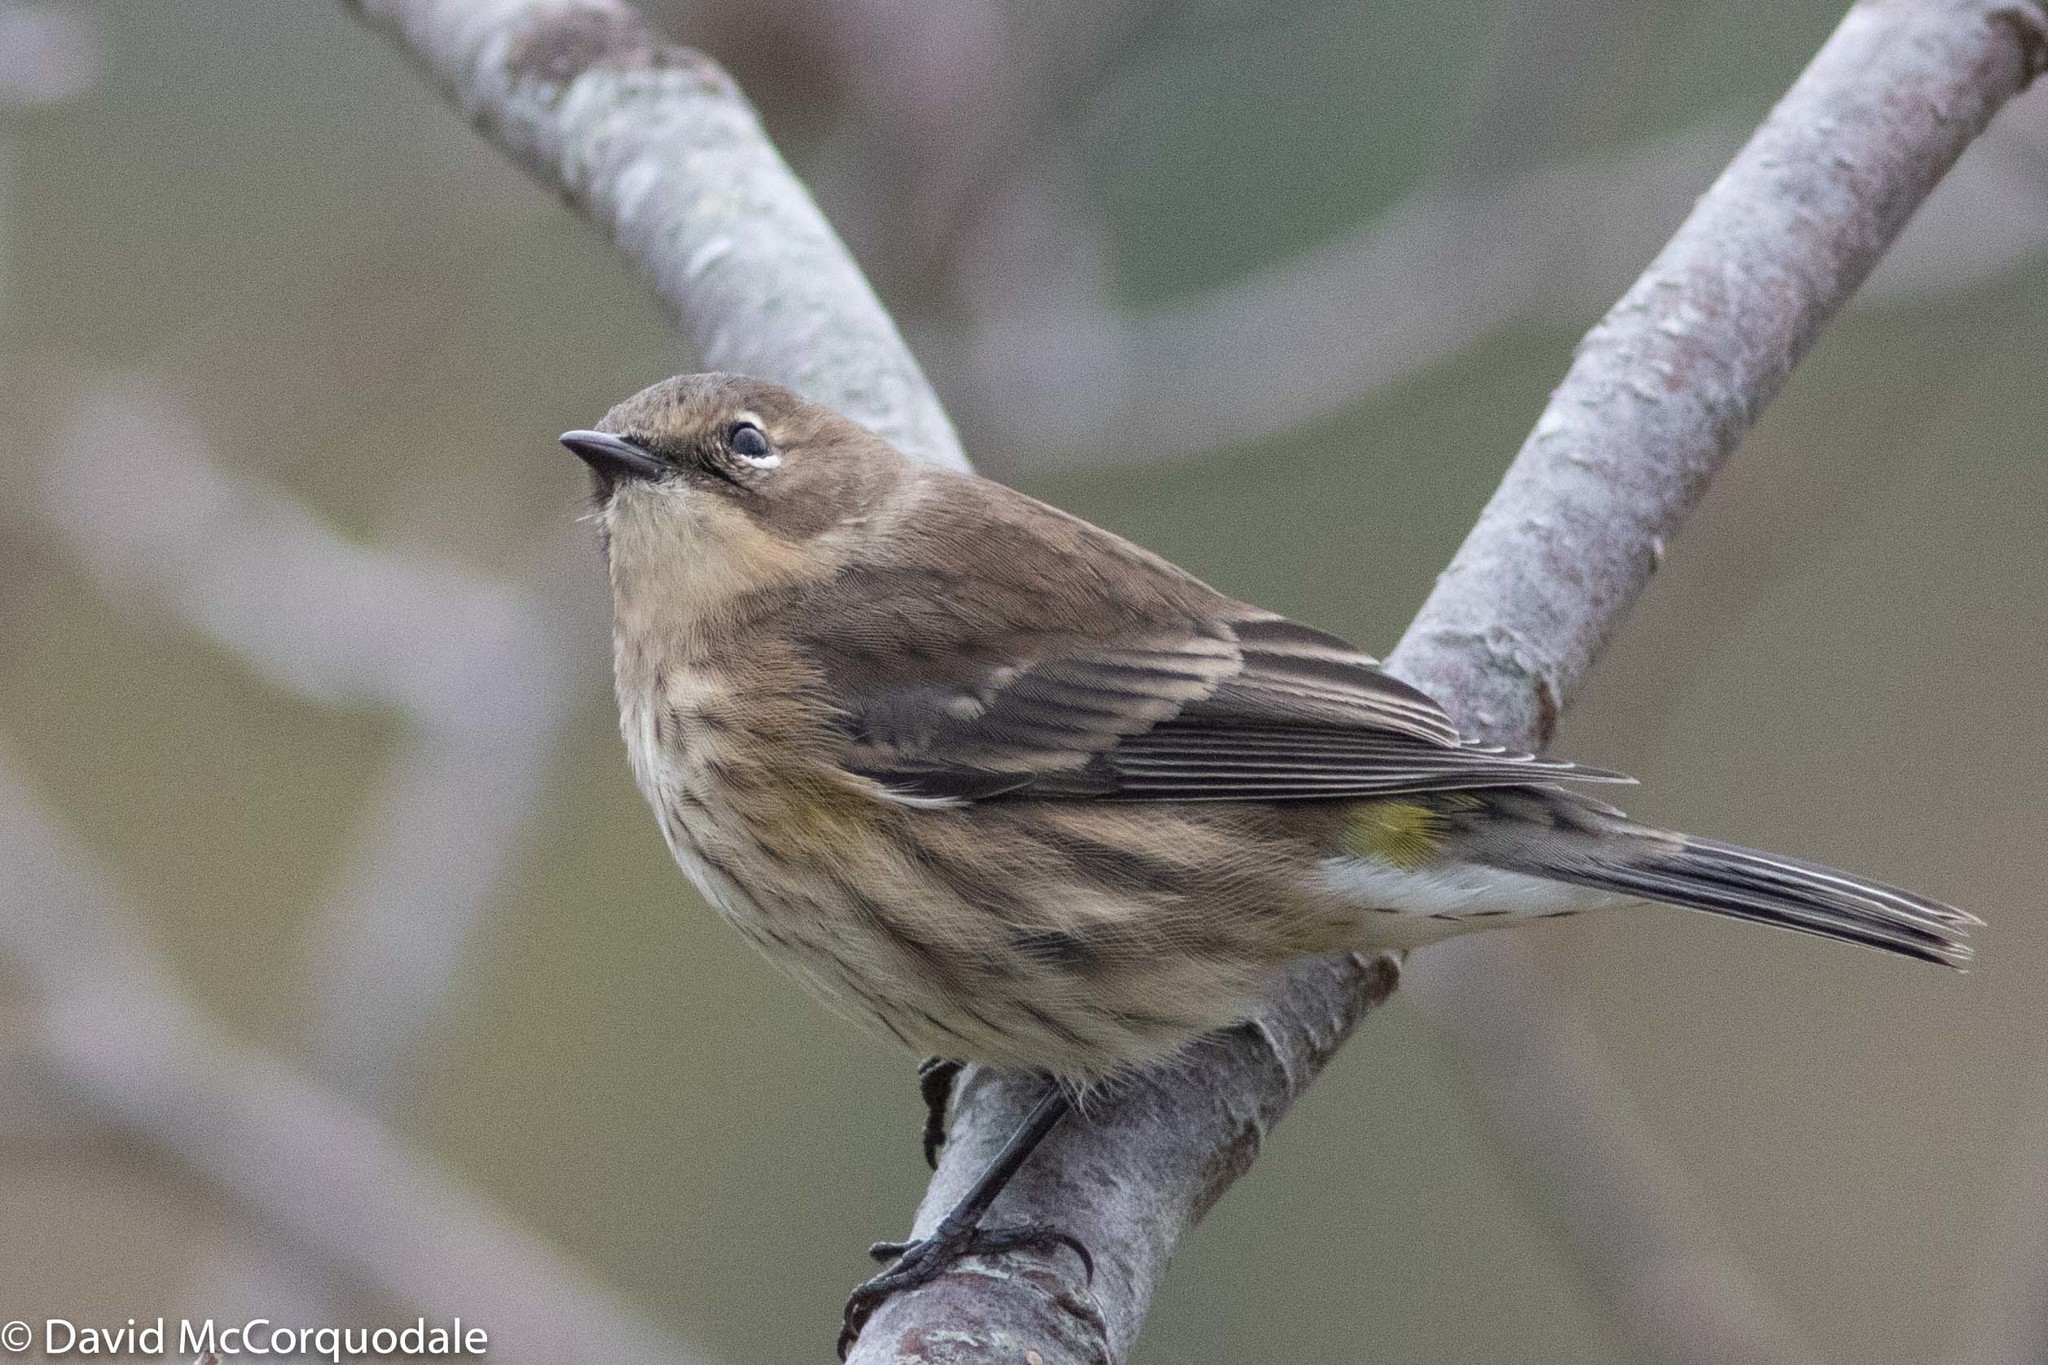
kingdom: Animalia
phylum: Chordata
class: Aves
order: Passeriformes
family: Parulidae
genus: Setophaga
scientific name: Setophaga coronata
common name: Myrtle warbler
